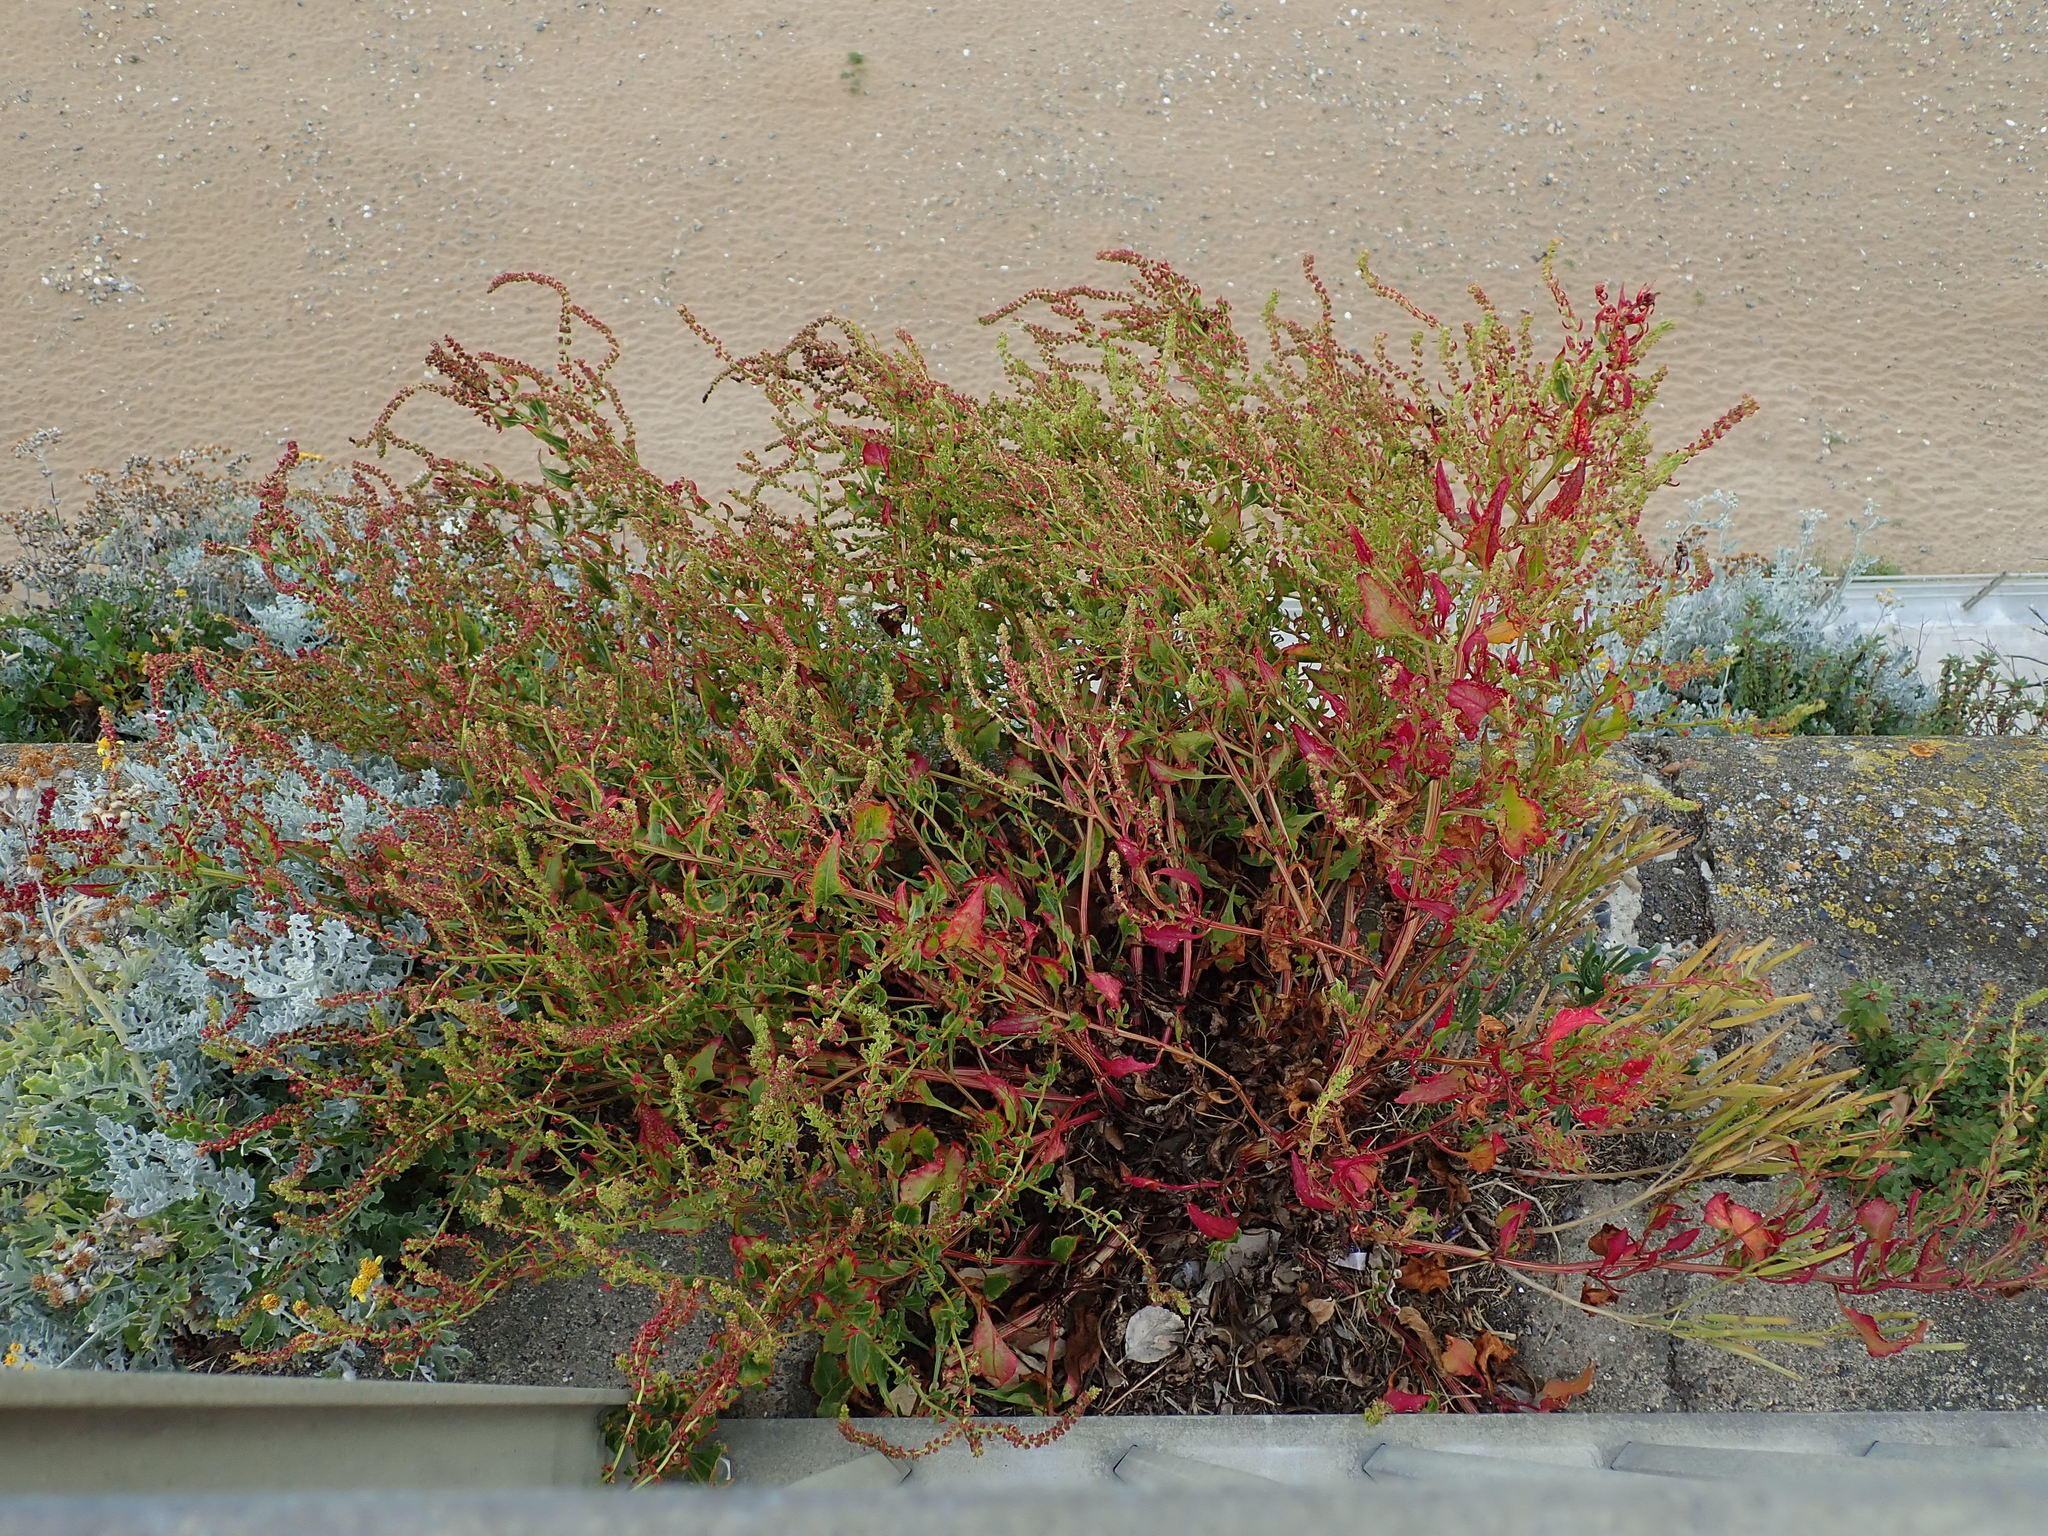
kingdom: Plantae
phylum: Tracheophyta
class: Magnoliopsida
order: Caryophyllales
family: Amaranthaceae
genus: Beta
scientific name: Beta vulgaris
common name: Beet
